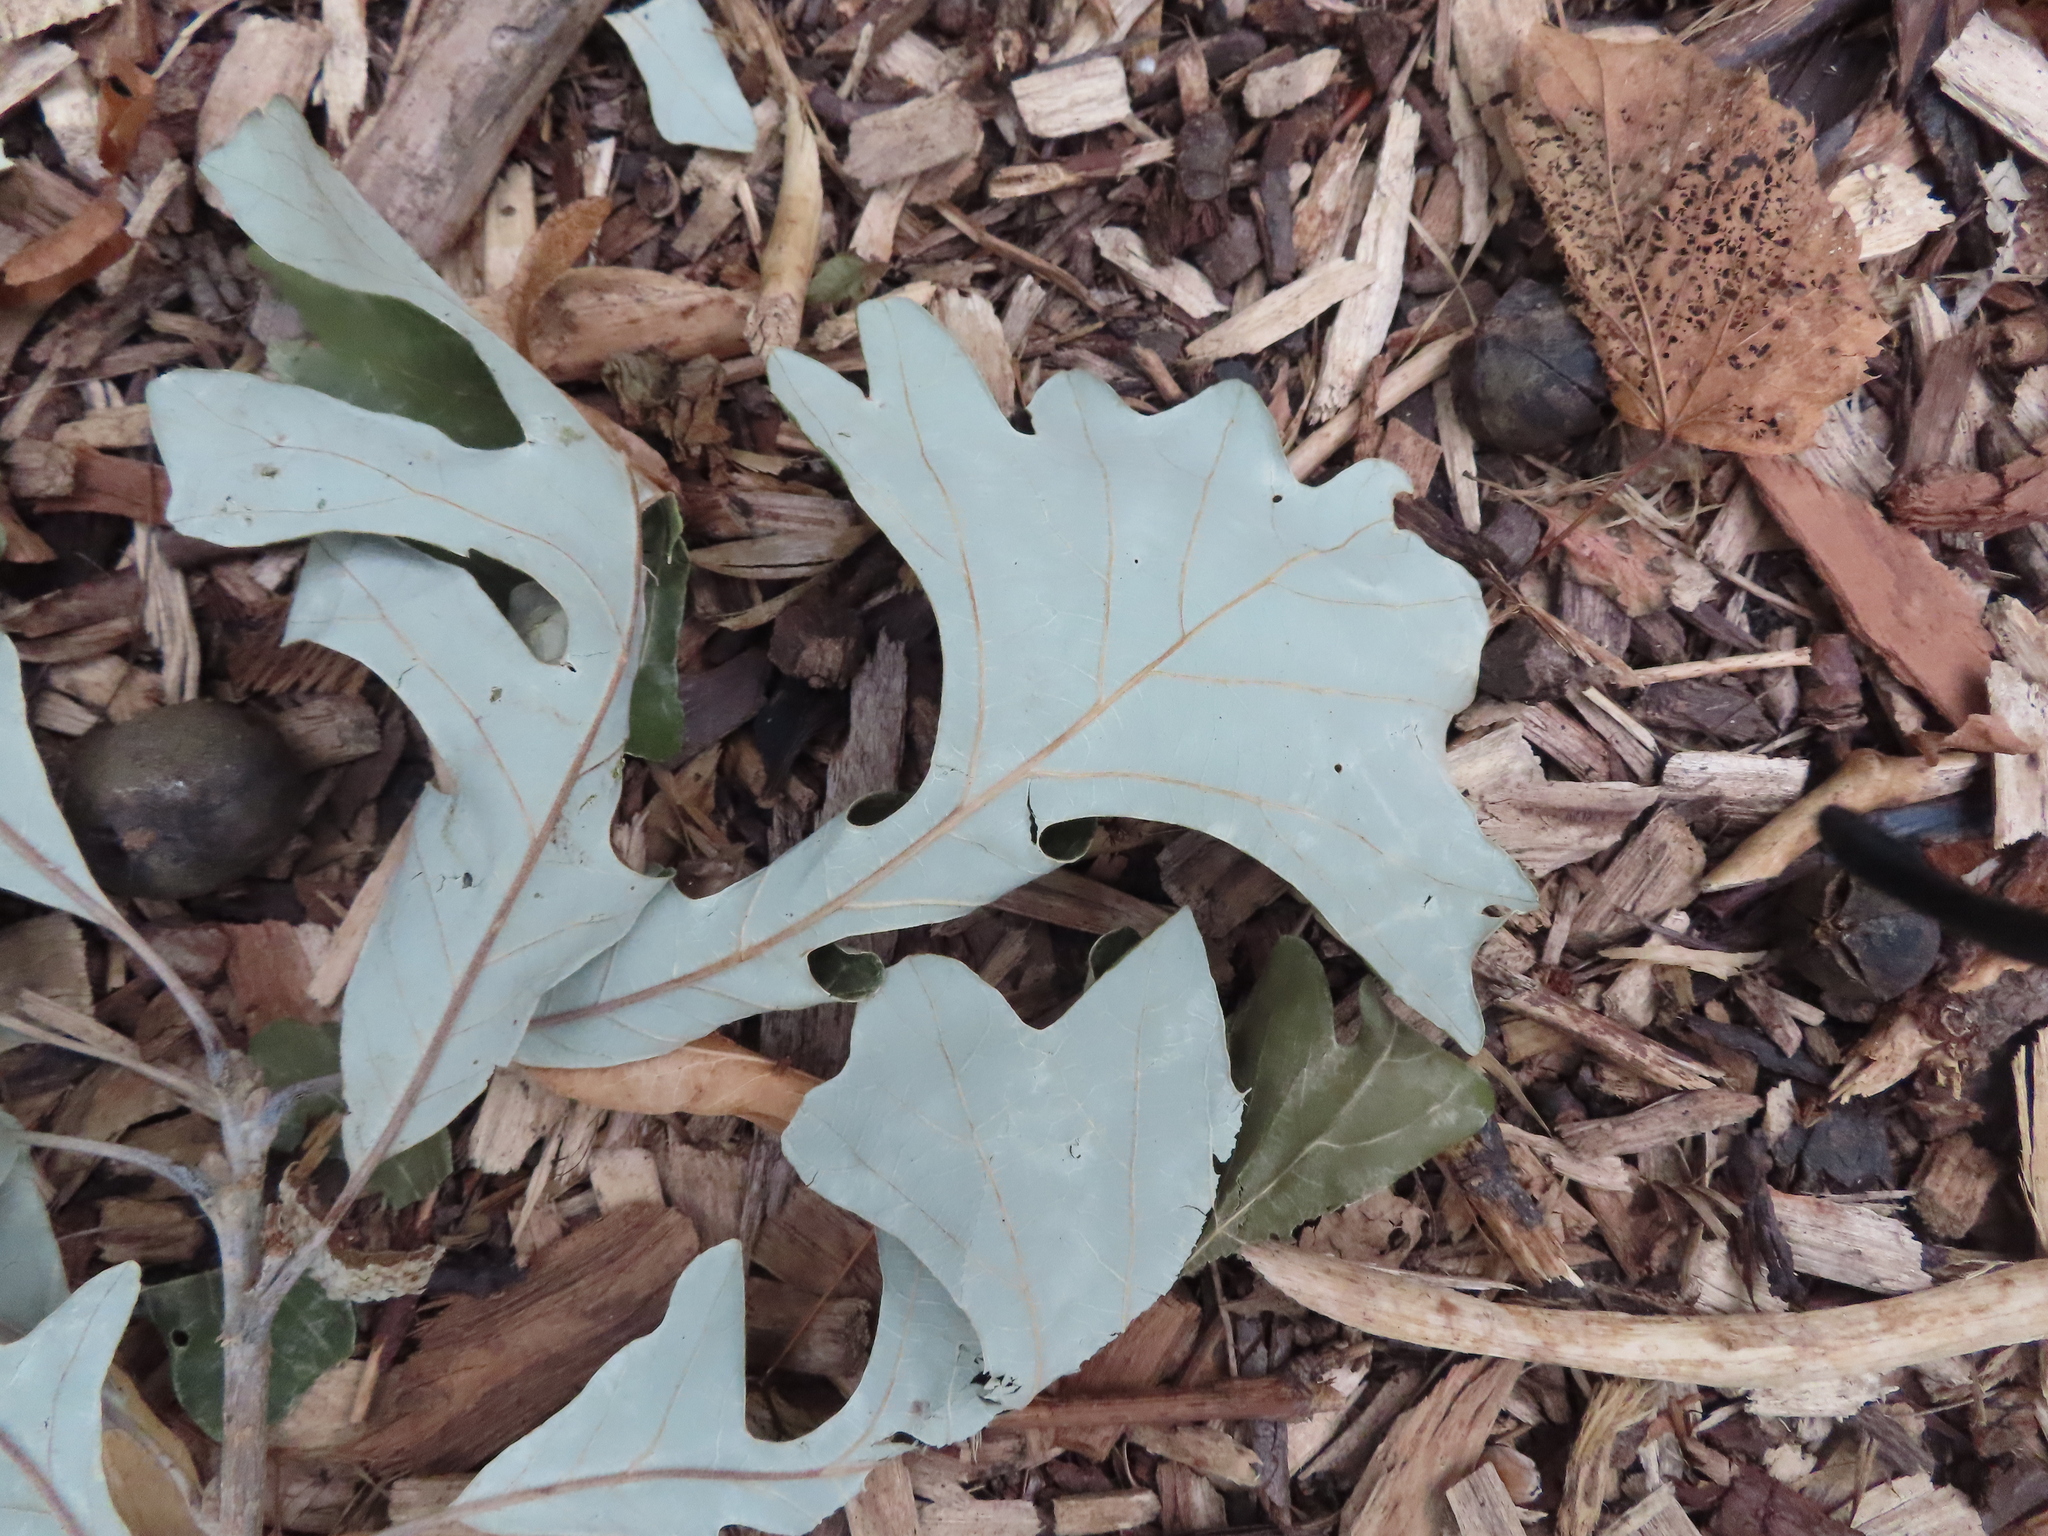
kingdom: Plantae
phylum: Tracheophyta
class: Magnoliopsida
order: Fagales
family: Fagaceae
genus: Quercus
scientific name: Quercus macrocarpa
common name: Bur oak
